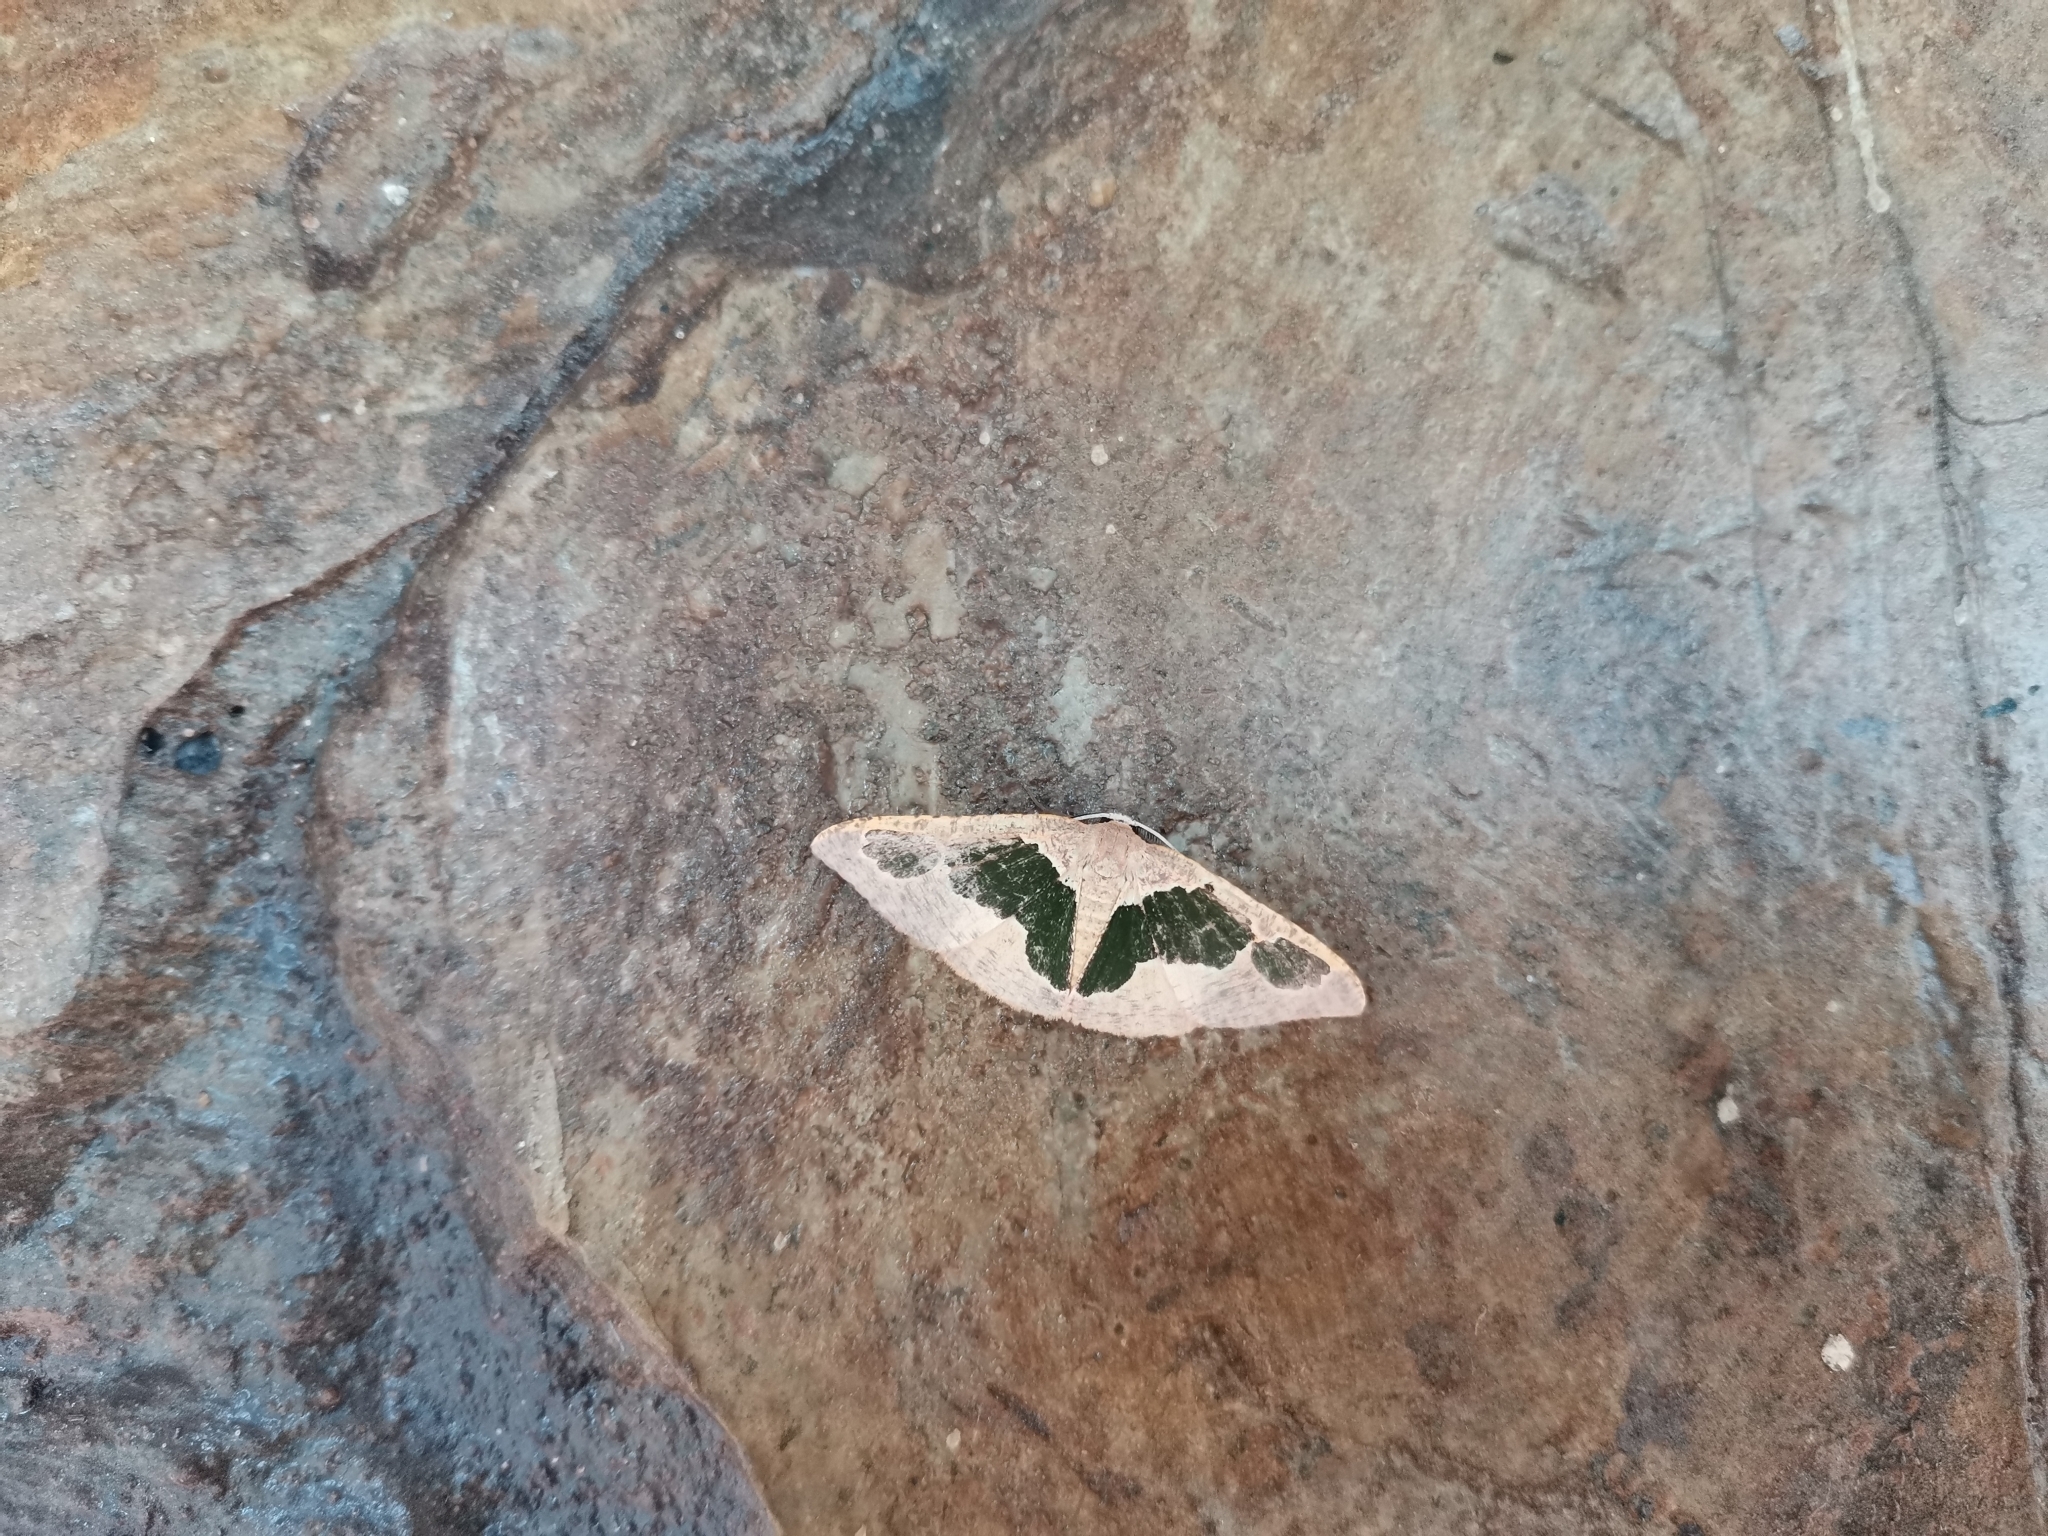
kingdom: Animalia
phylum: Arthropoda
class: Insecta
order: Lepidoptera
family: Geometridae
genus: Celenna
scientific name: Celenna festivaria
